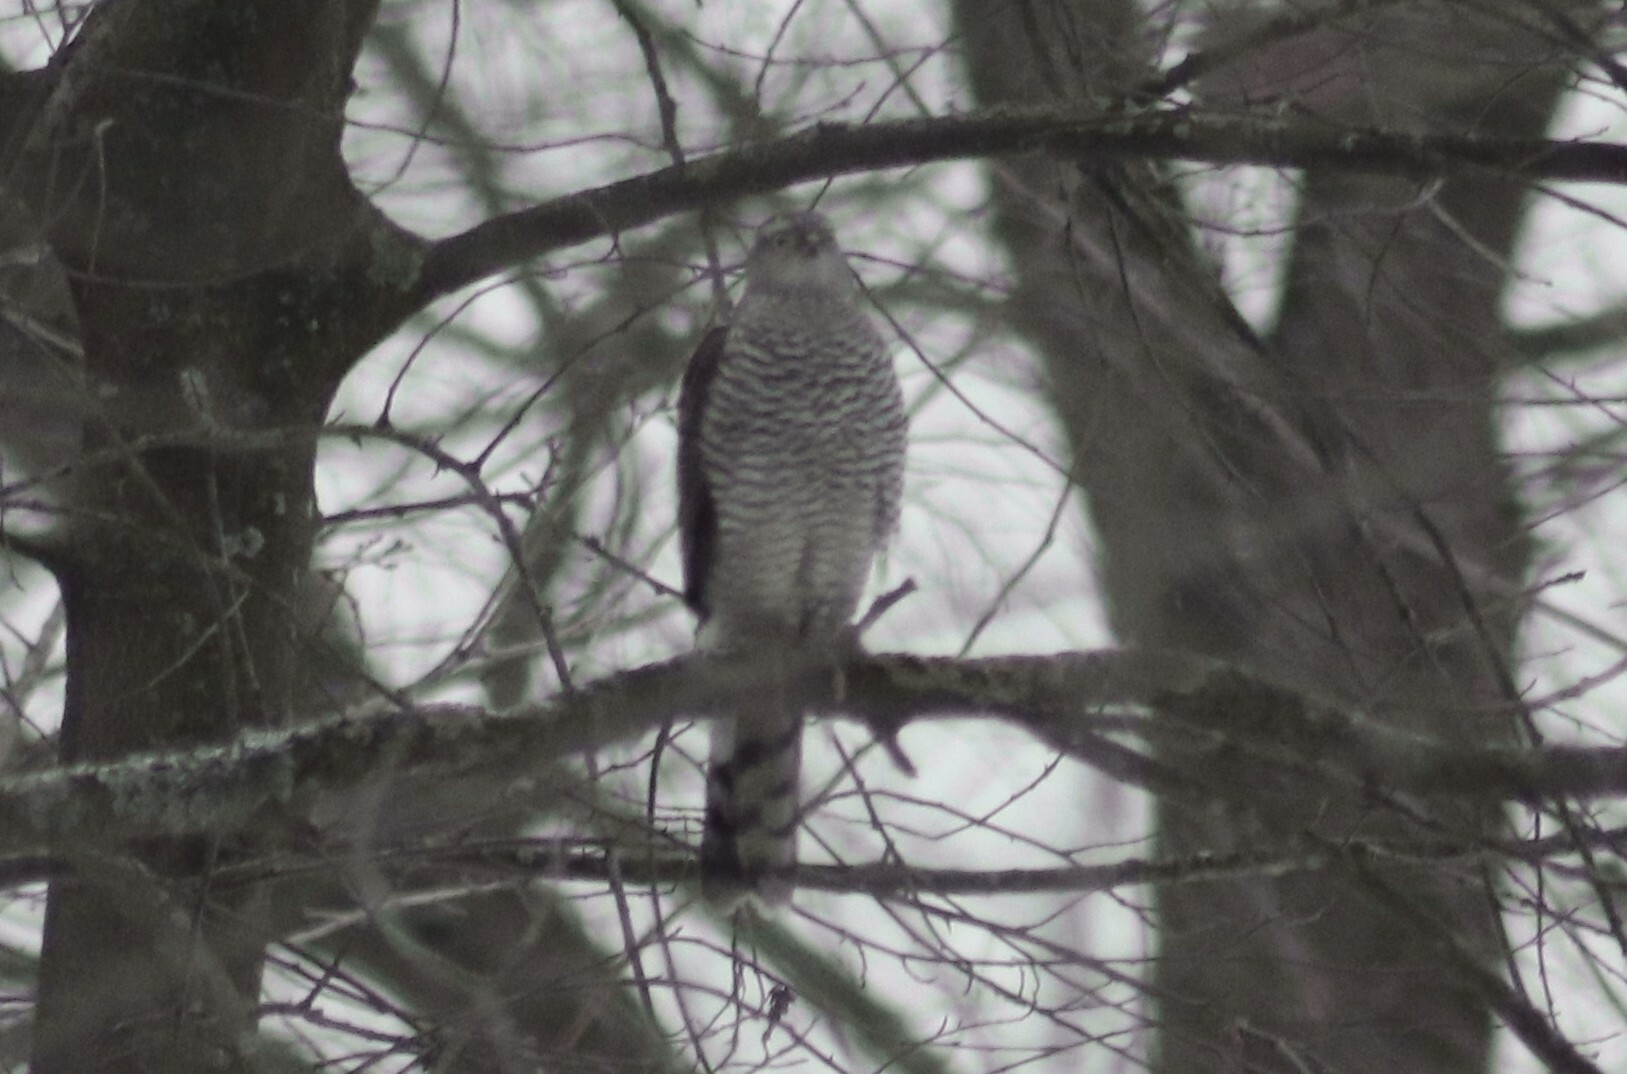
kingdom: Animalia
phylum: Chordata
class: Aves
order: Accipitriformes
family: Accipitridae
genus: Accipiter
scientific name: Accipiter nisus
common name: Eurasian sparrowhawk
